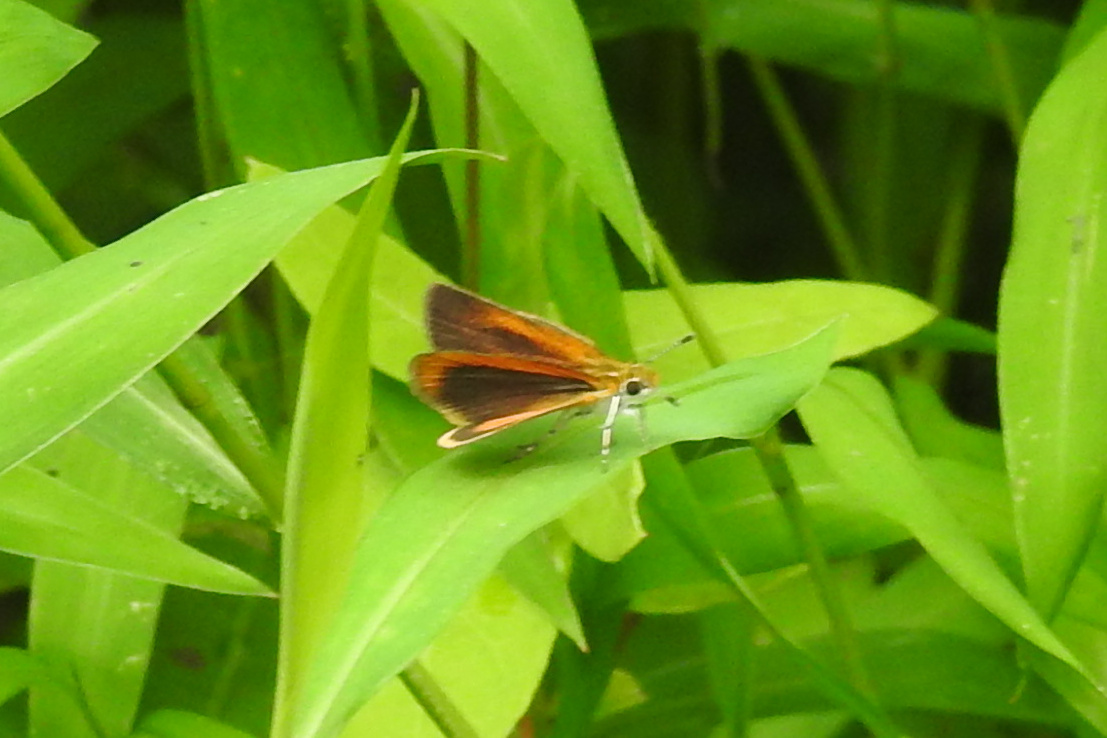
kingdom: Animalia
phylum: Arthropoda
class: Insecta
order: Lepidoptera
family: Hesperiidae
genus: Ancyloxypha
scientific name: Ancyloxypha numitor
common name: Least skipper
